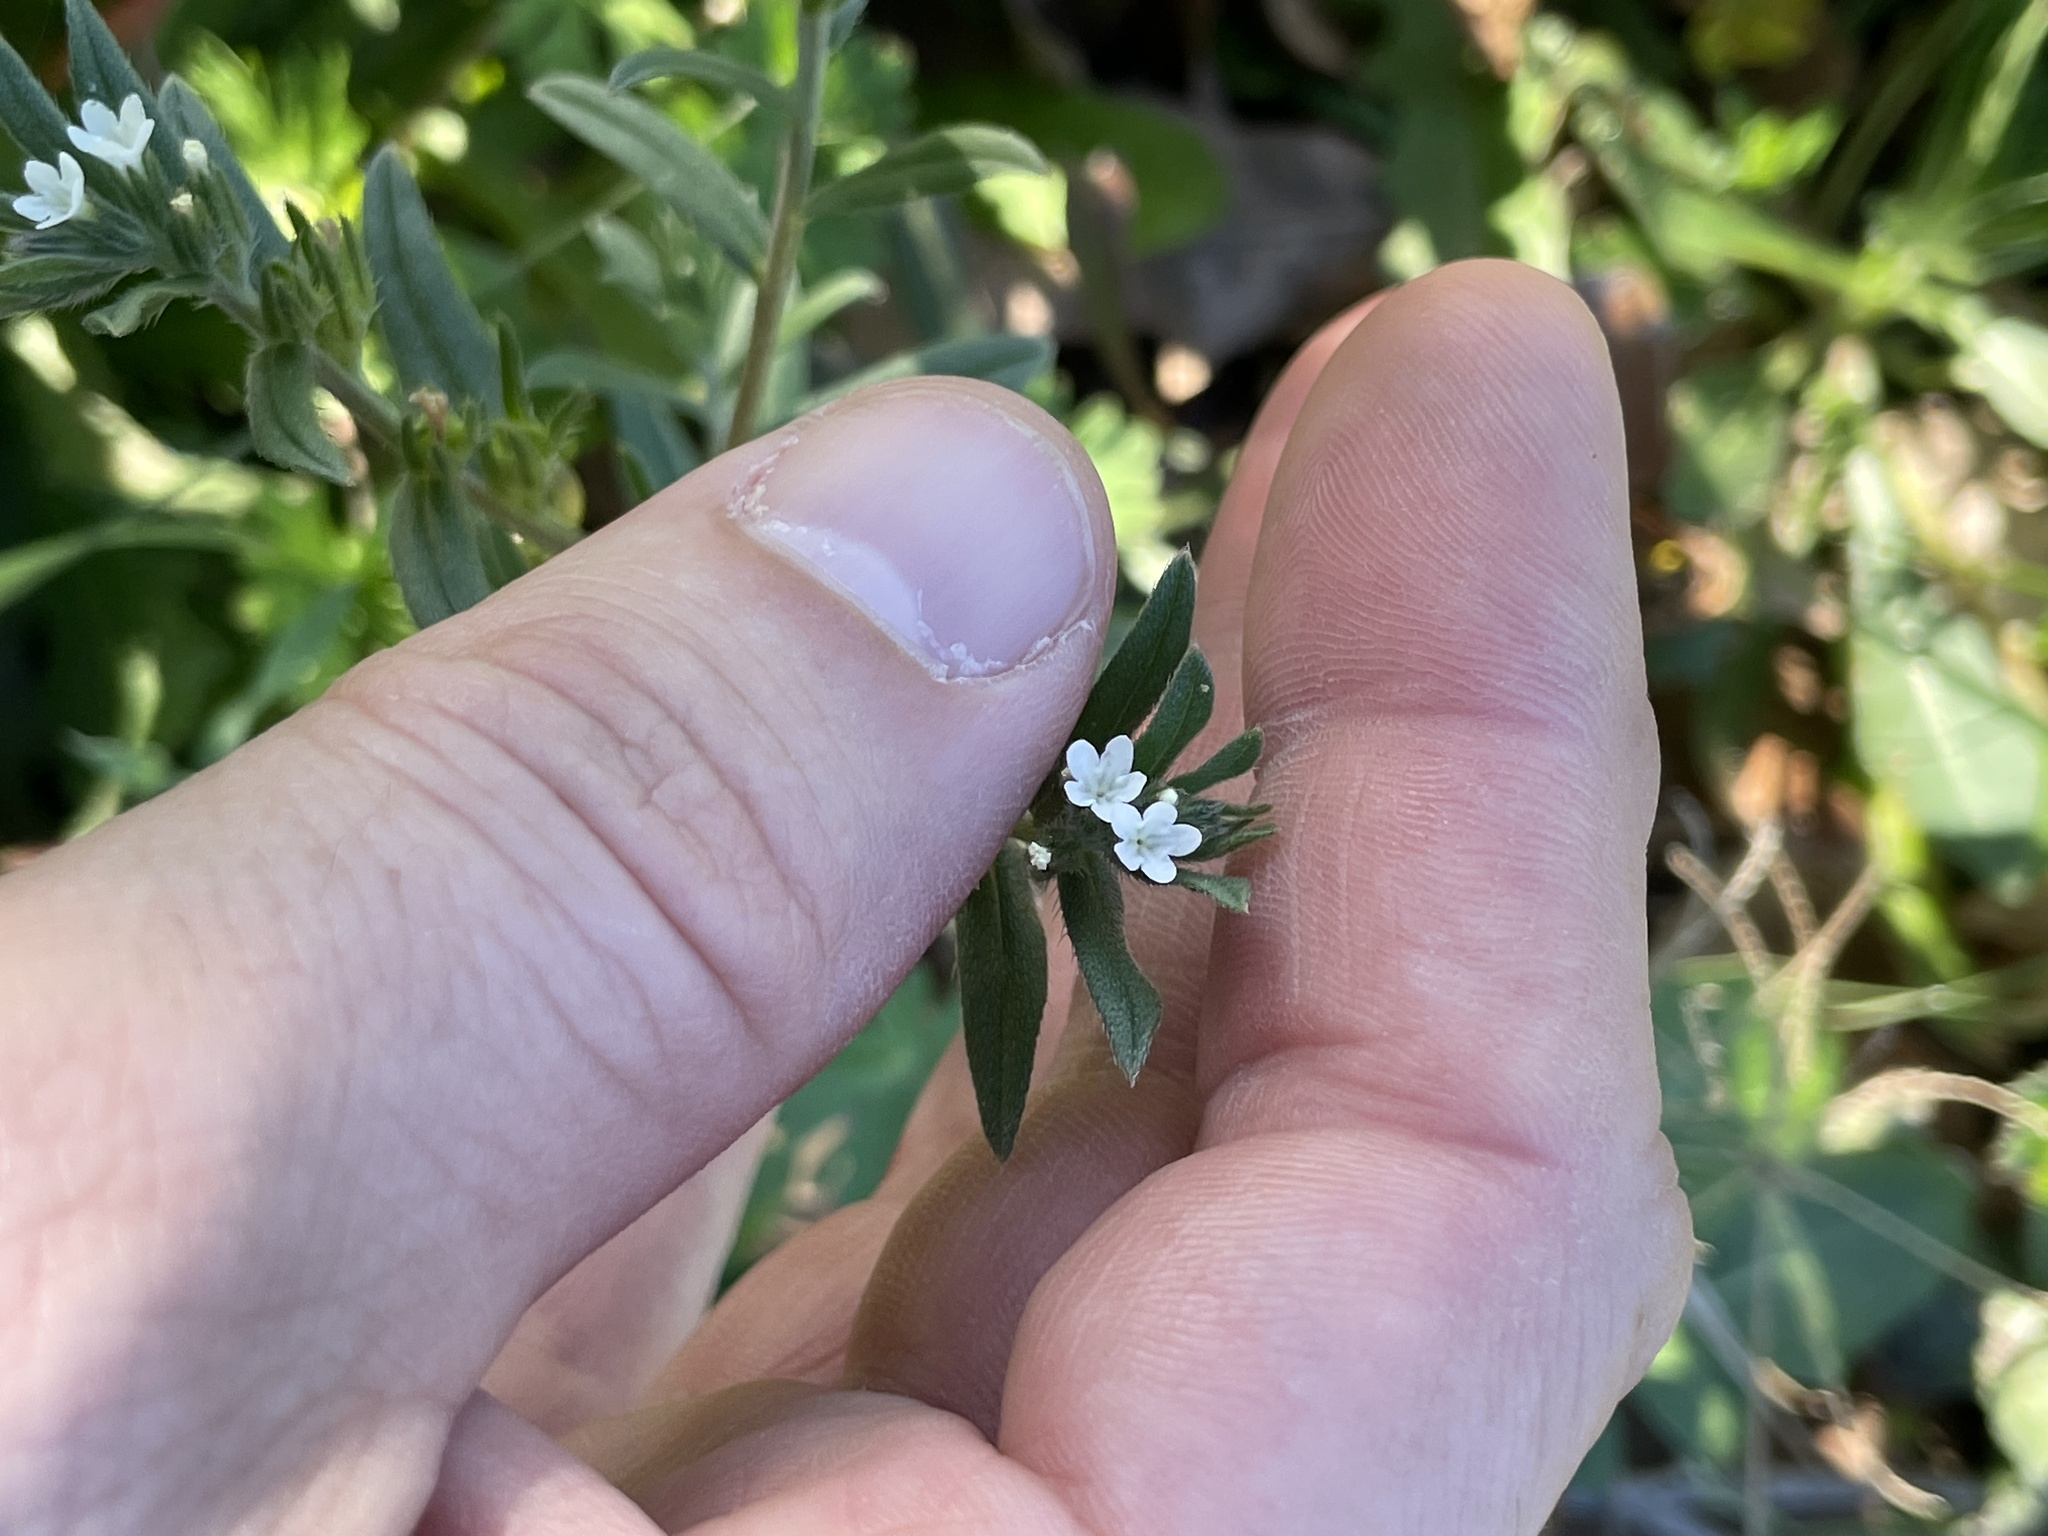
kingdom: Plantae
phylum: Tracheophyta
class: Magnoliopsida
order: Boraginales
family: Boraginaceae
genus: Buglossoides
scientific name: Buglossoides arvensis
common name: Corn gromwell
